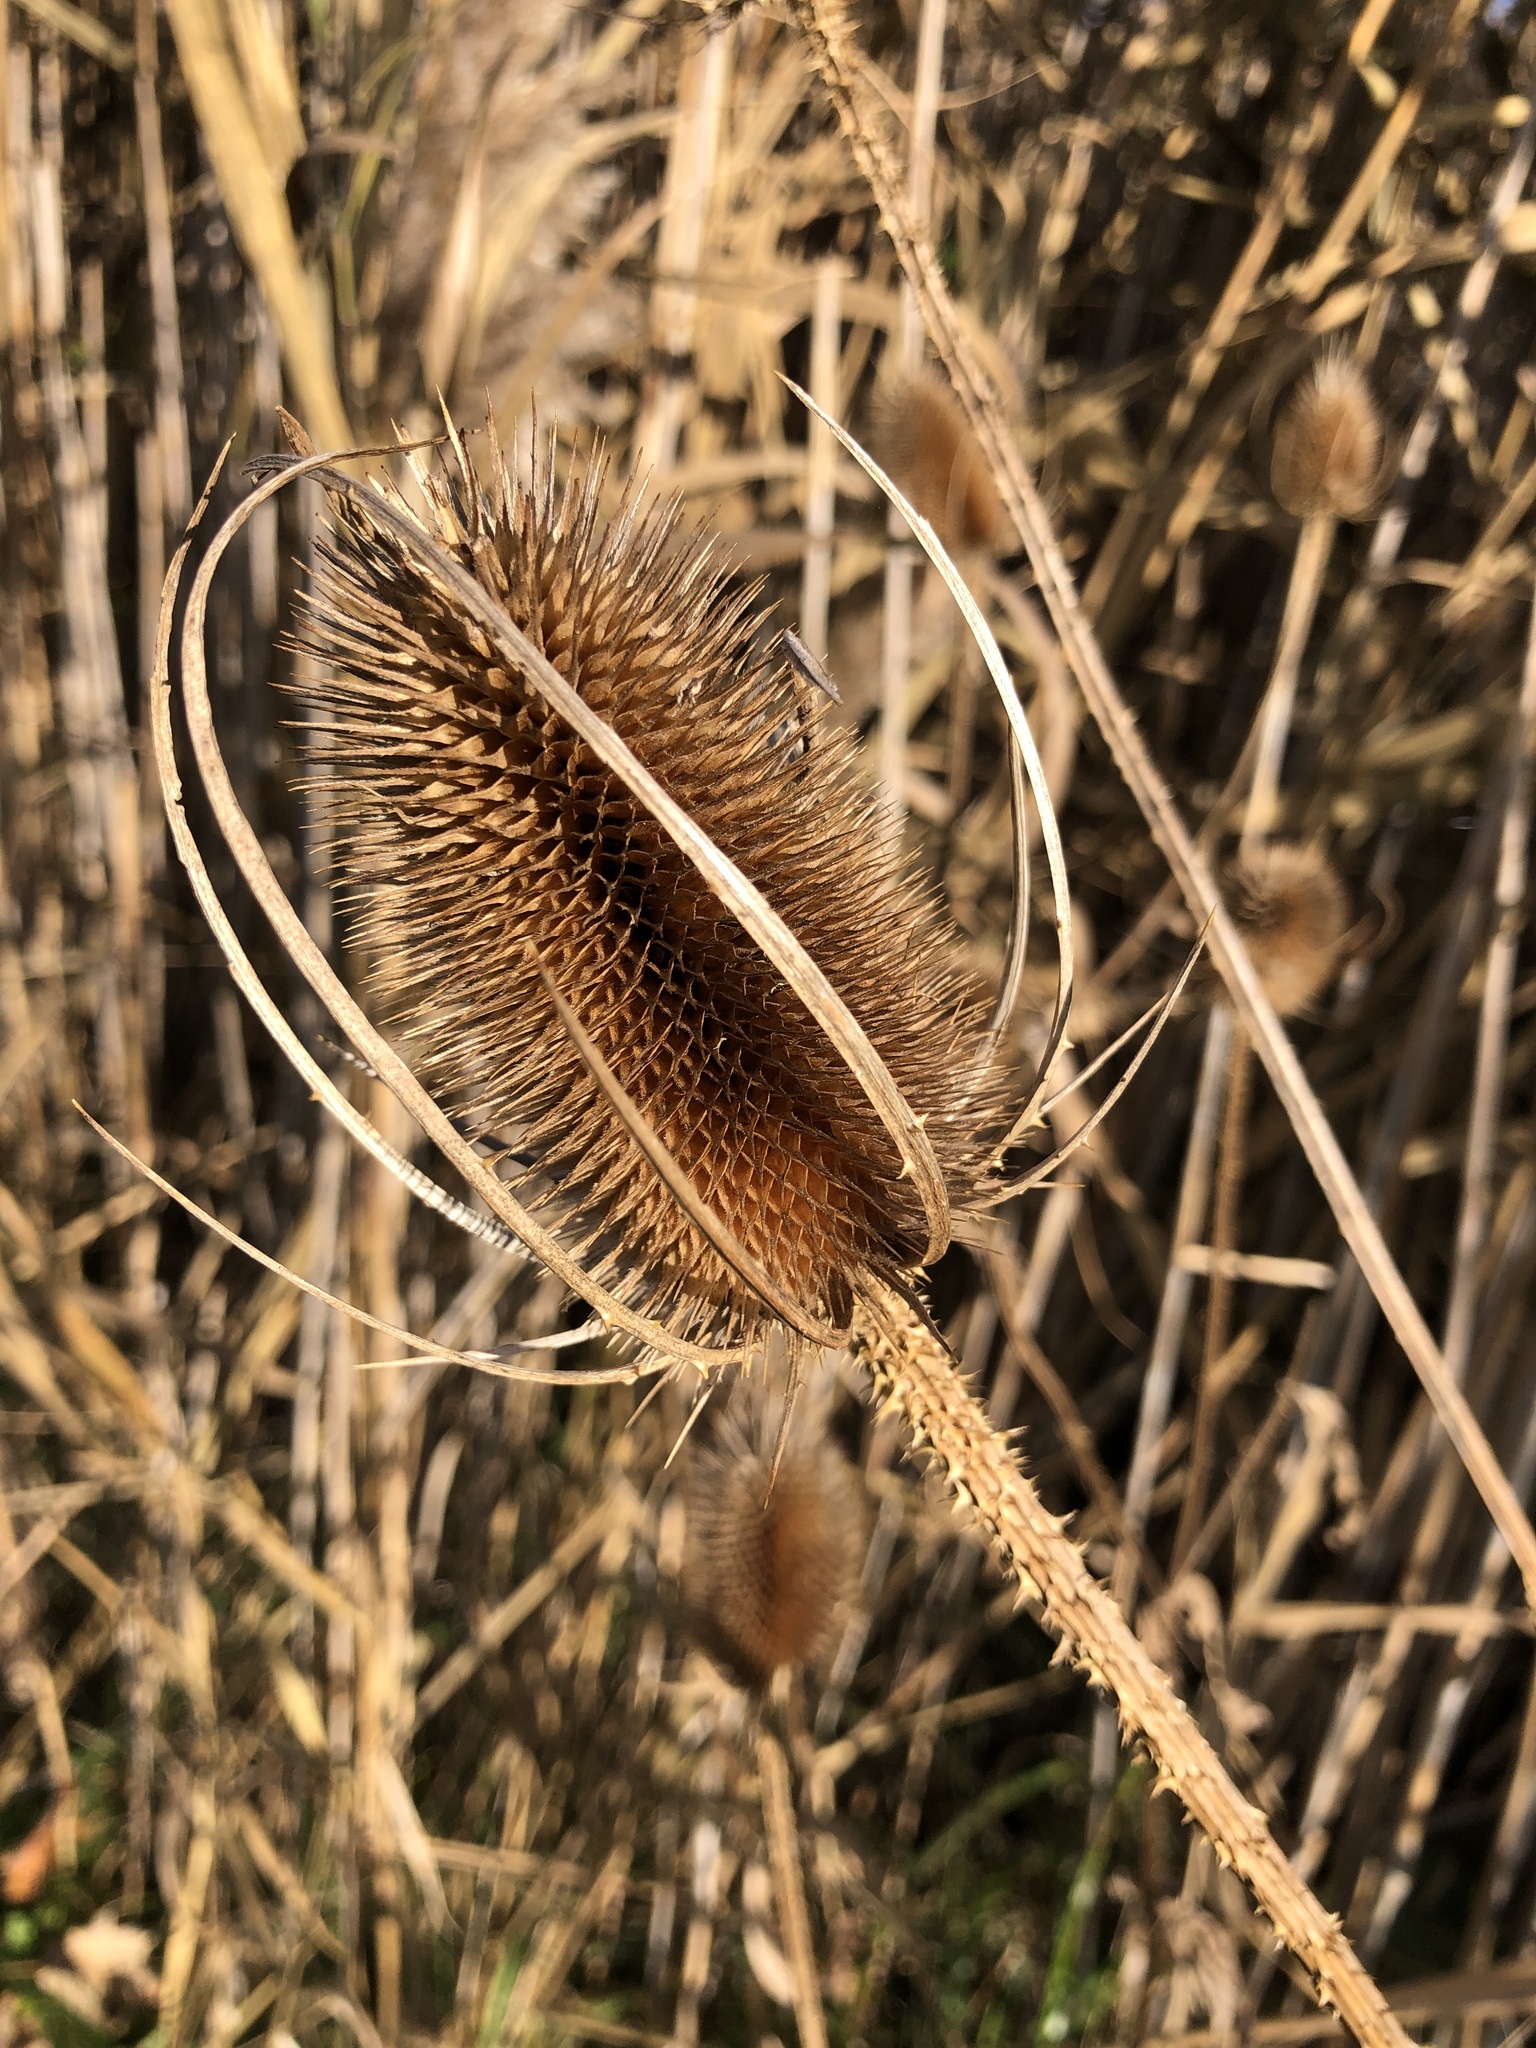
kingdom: Plantae
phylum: Tracheophyta
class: Magnoliopsida
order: Dipsacales
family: Caprifoliaceae
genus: Dipsacus
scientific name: Dipsacus fullonum
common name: Teasel
